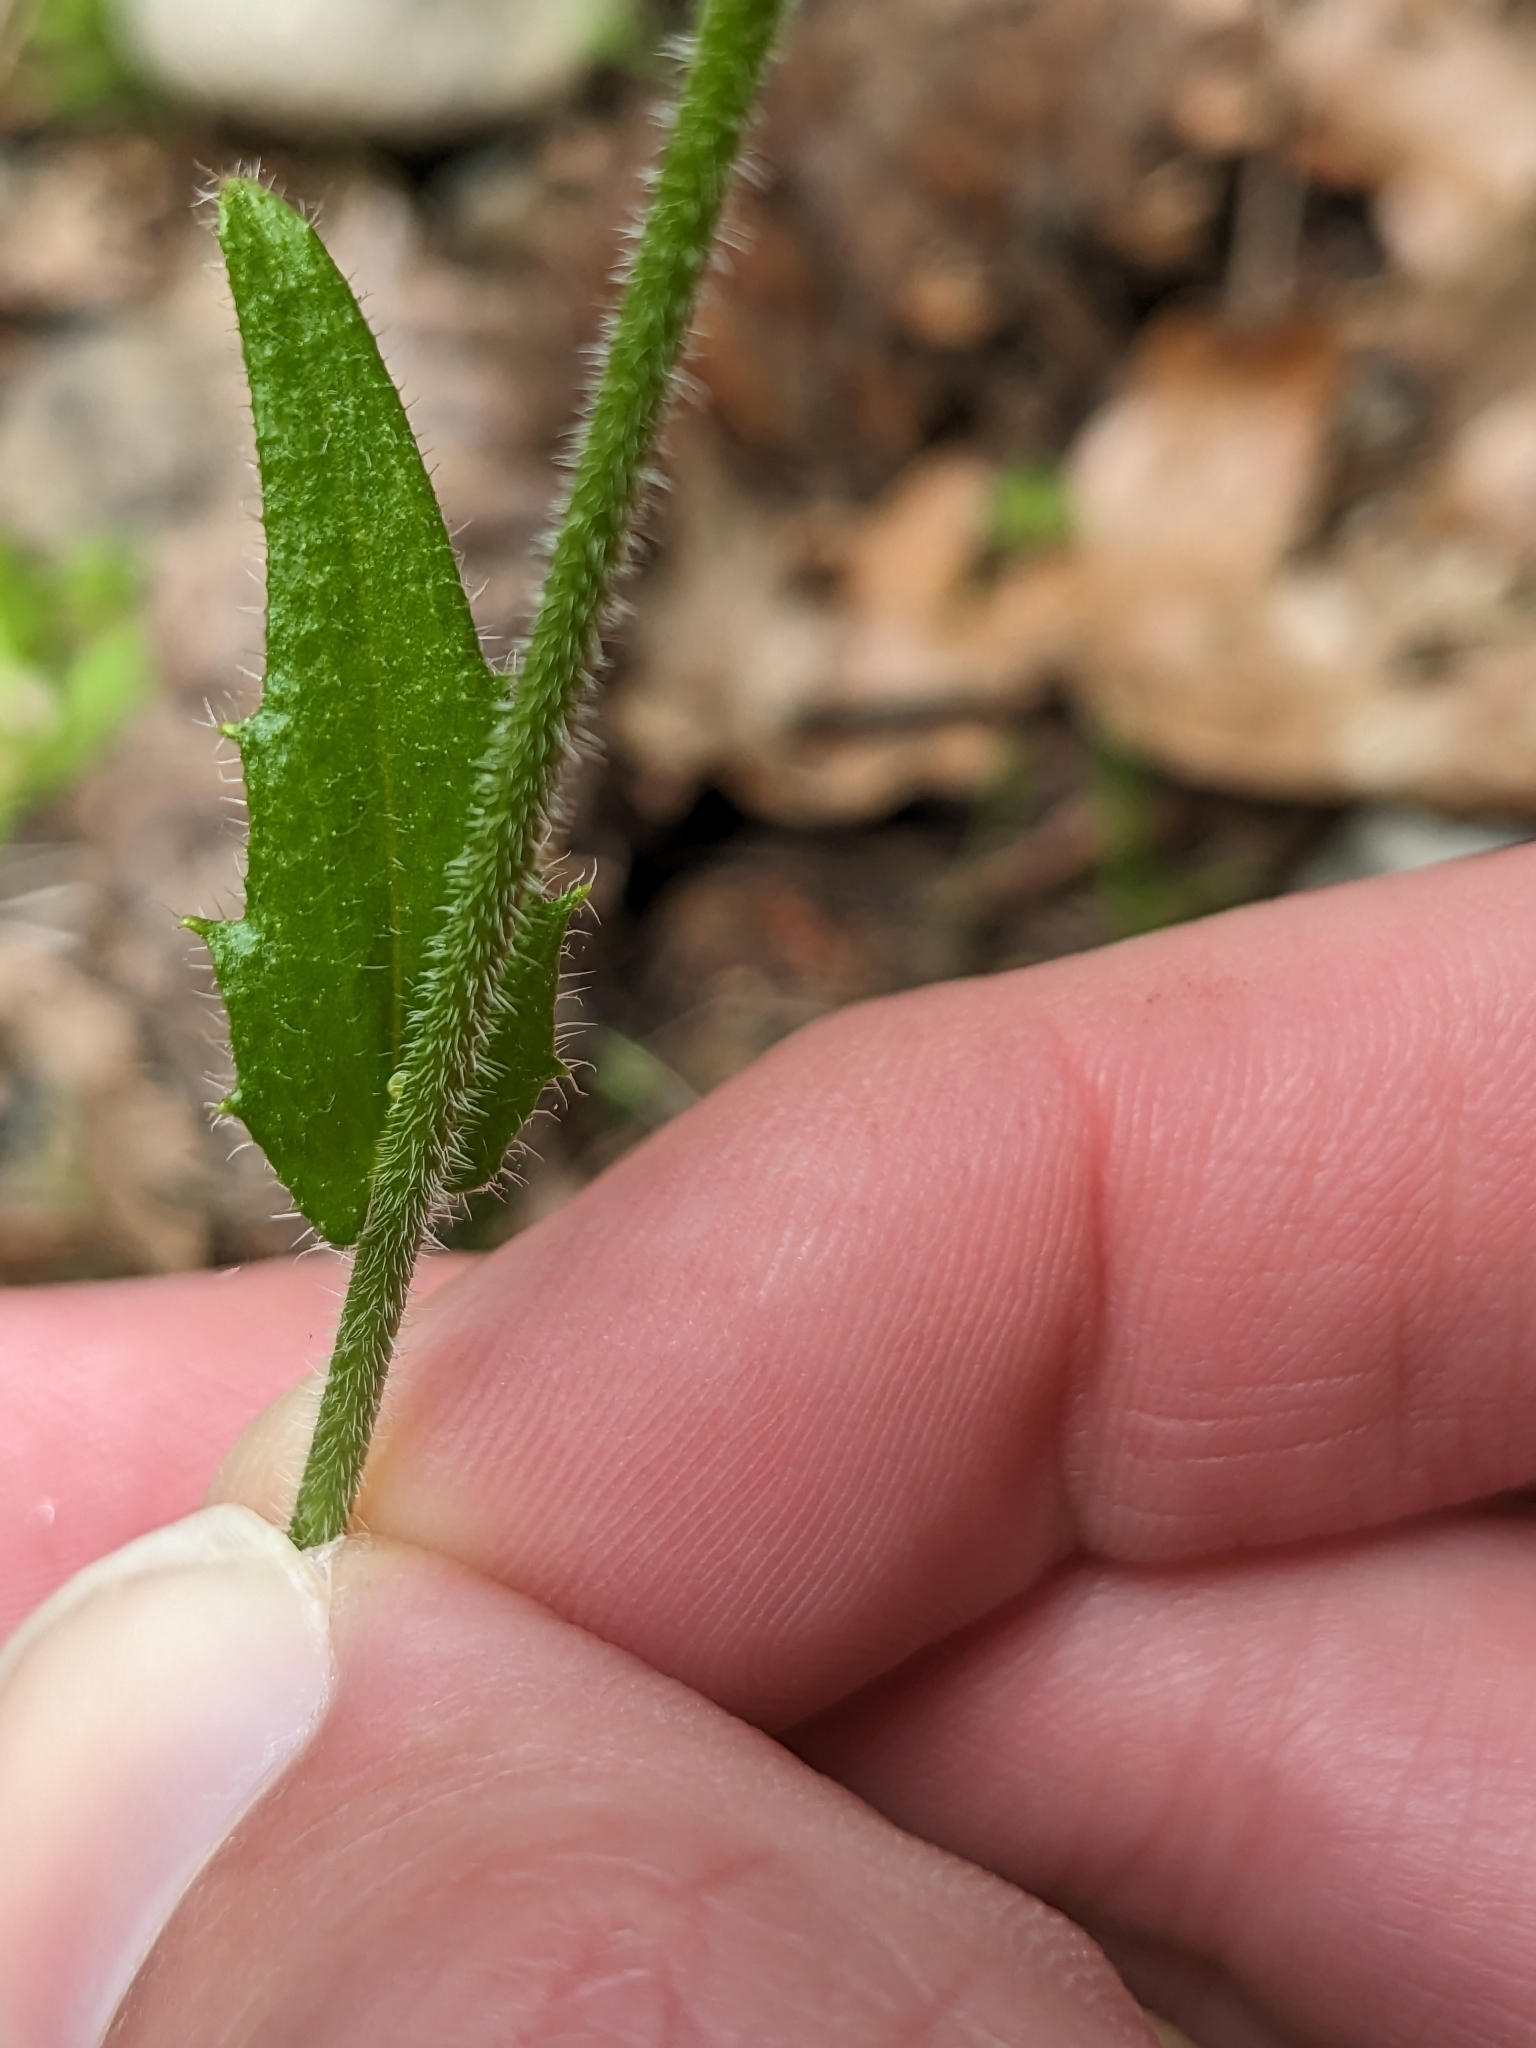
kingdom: Plantae
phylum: Tracheophyta
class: Magnoliopsida
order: Brassicales
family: Brassicaceae
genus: Arabidopsis
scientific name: Arabidopsis thaliana
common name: Thale cress
